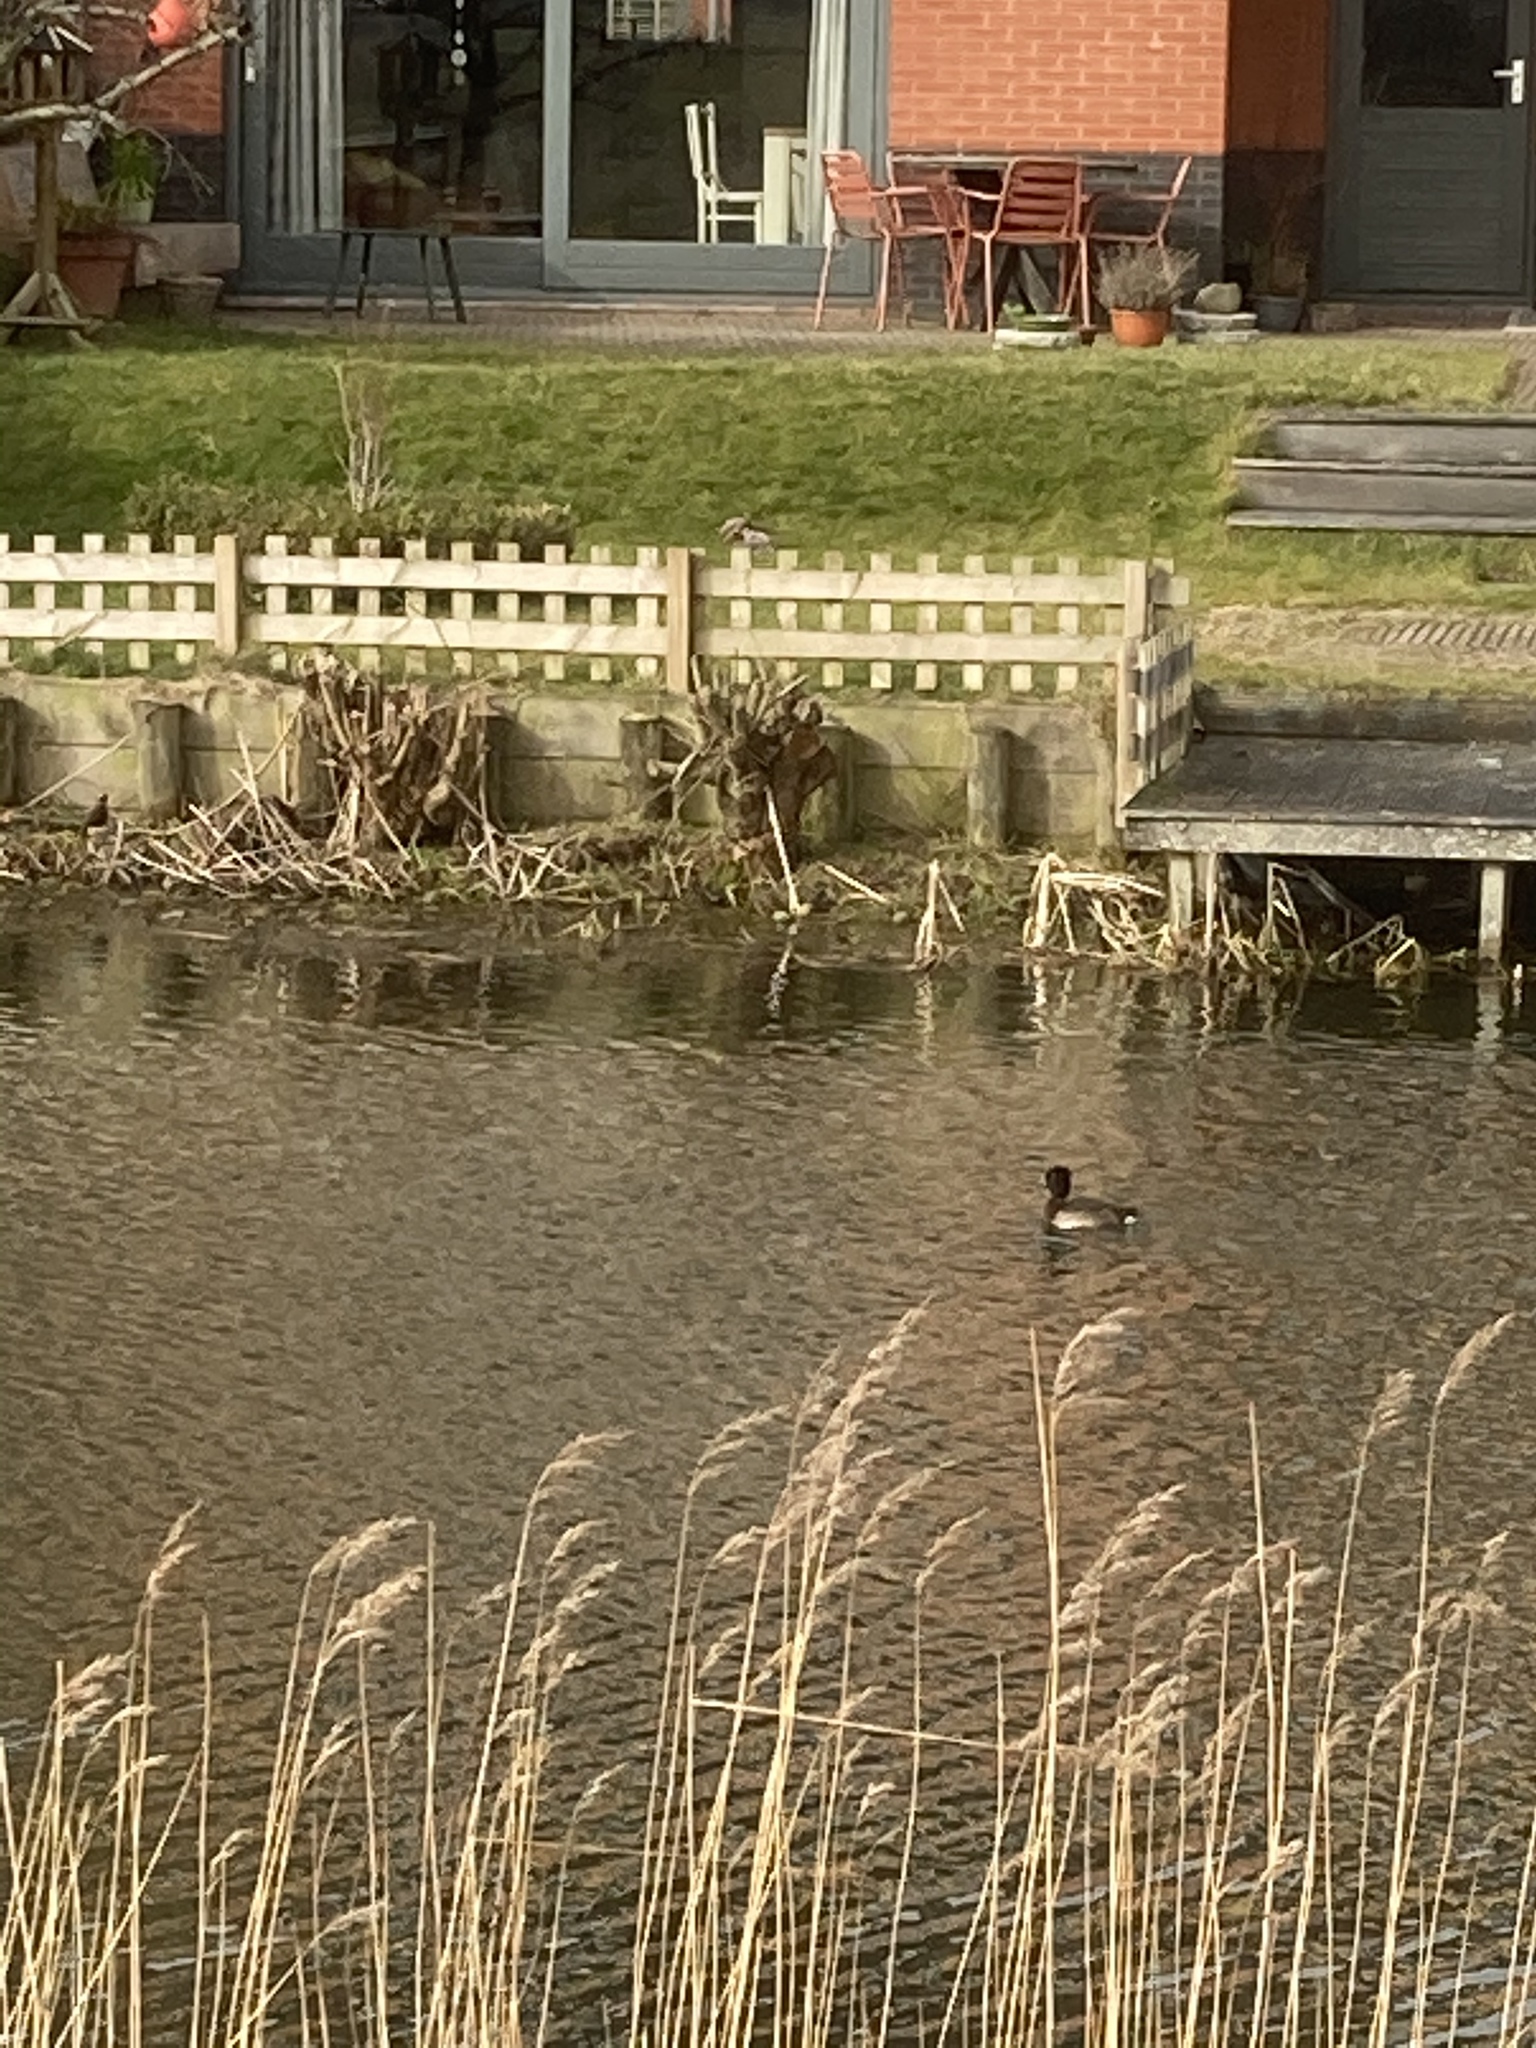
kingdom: Animalia
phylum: Chordata
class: Aves
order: Anseriformes
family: Anatidae
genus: Aythya
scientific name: Aythya fuligula
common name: Tufted duck
